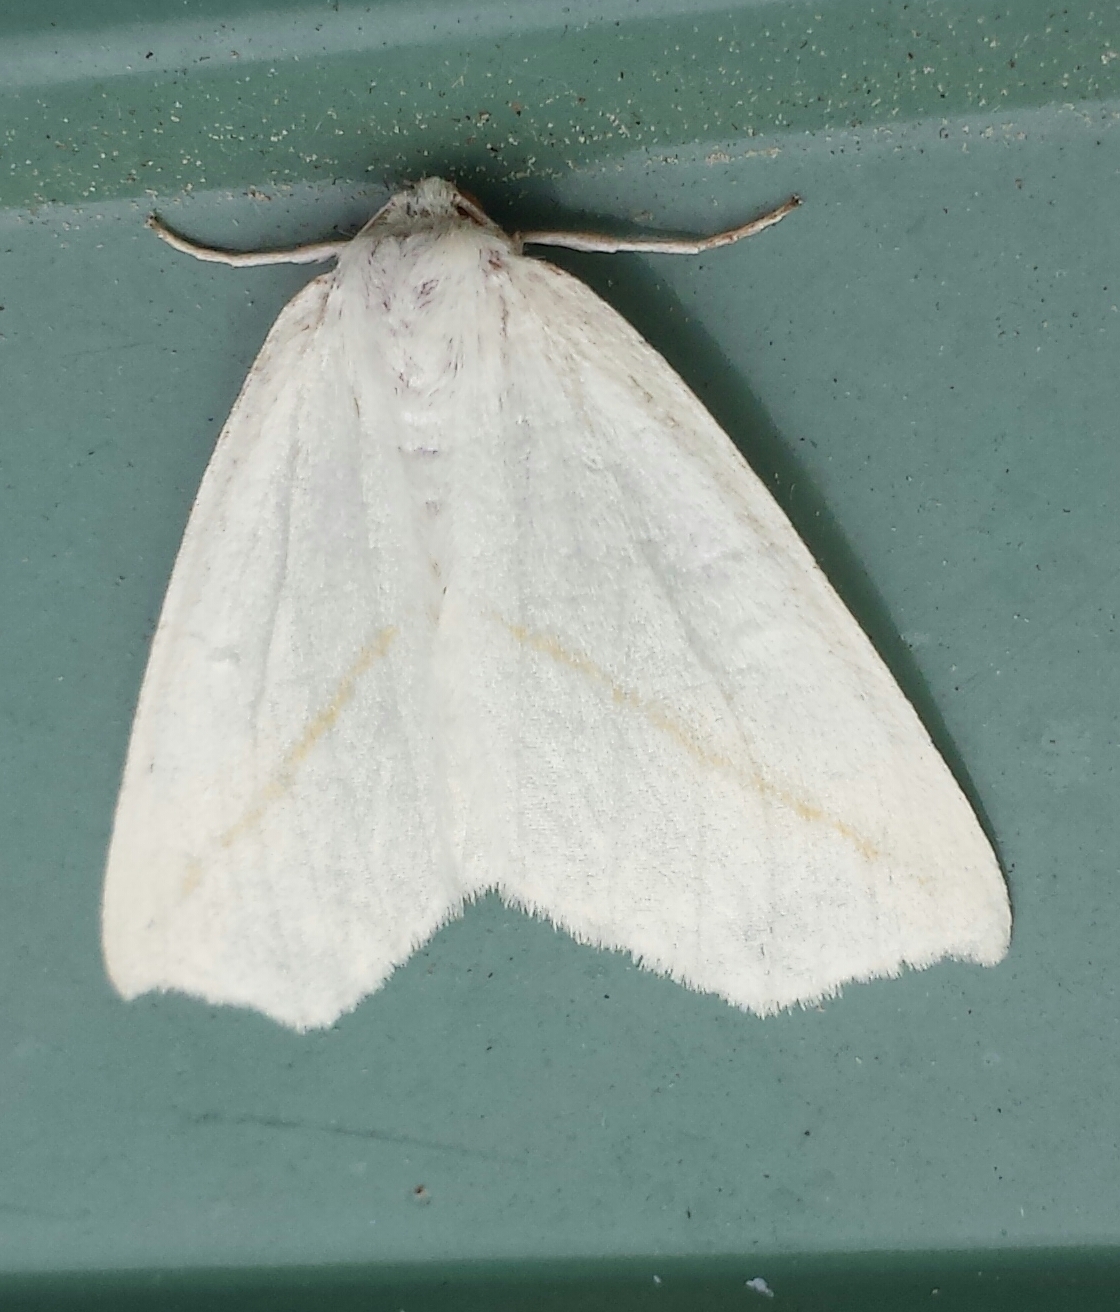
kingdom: Animalia
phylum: Arthropoda
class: Insecta
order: Lepidoptera
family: Geometridae
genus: Tetracis
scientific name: Tetracis cachexiata
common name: White slant-line
